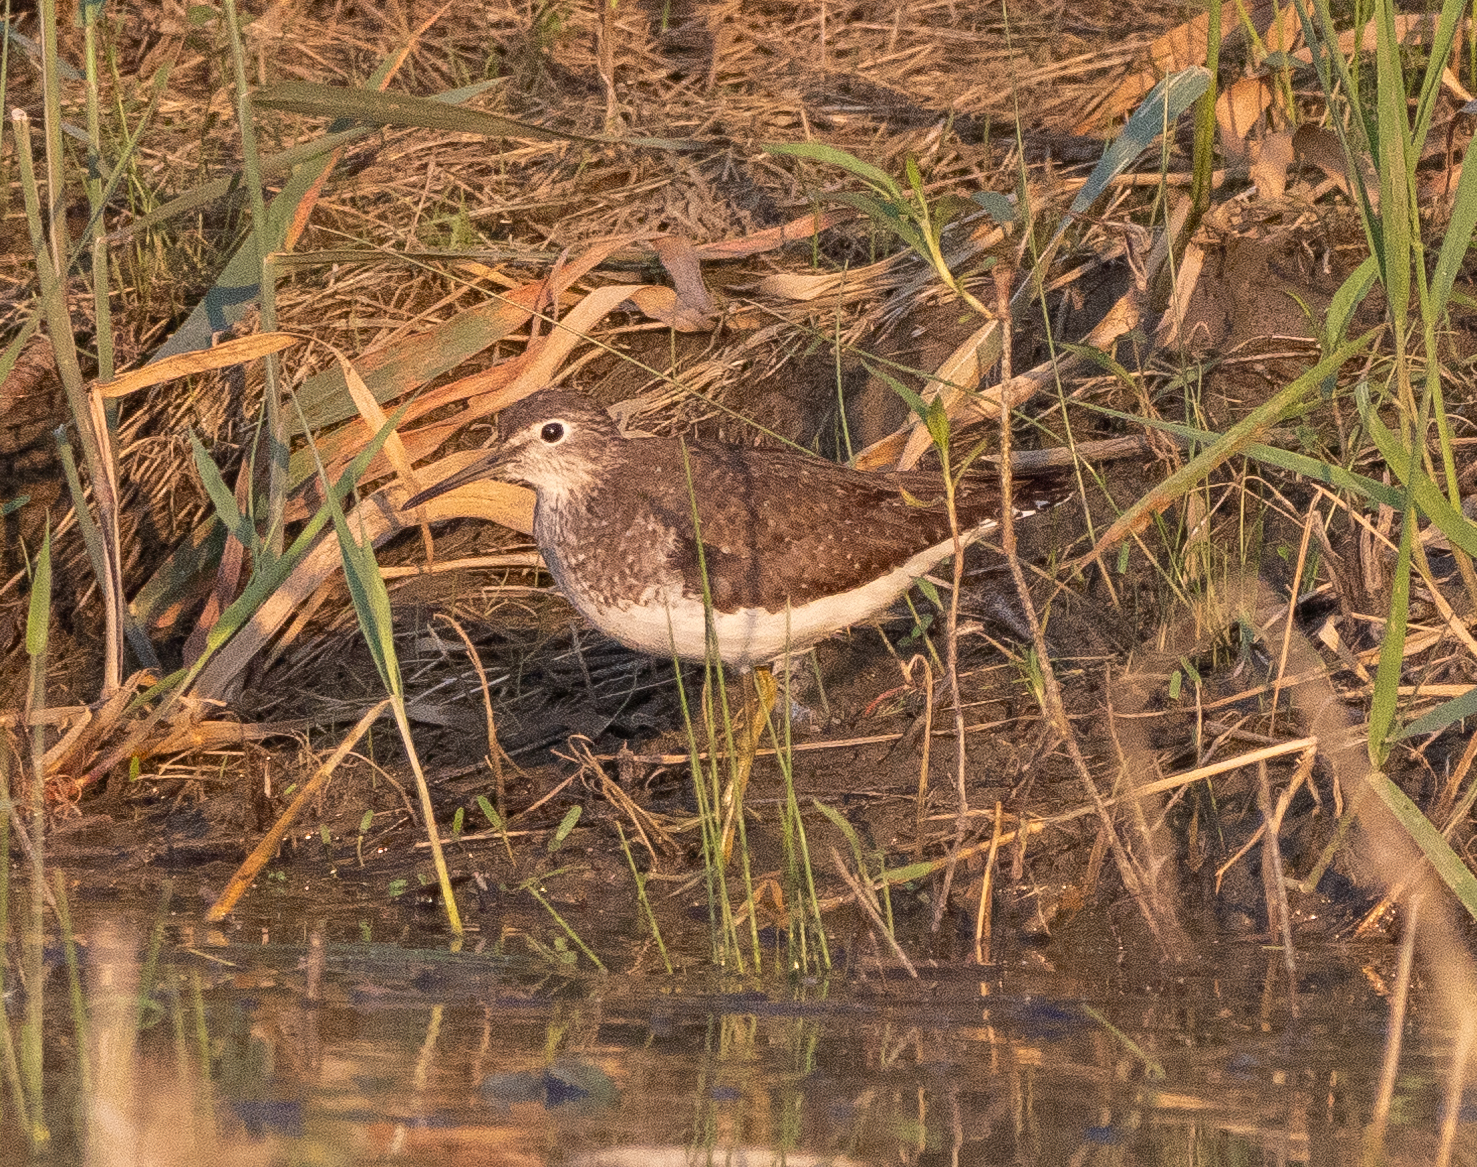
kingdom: Animalia
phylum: Chordata
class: Aves
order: Charadriiformes
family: Scolopacidae
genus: Tringa
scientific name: Tringa solitaria
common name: Solitary sandpiper
